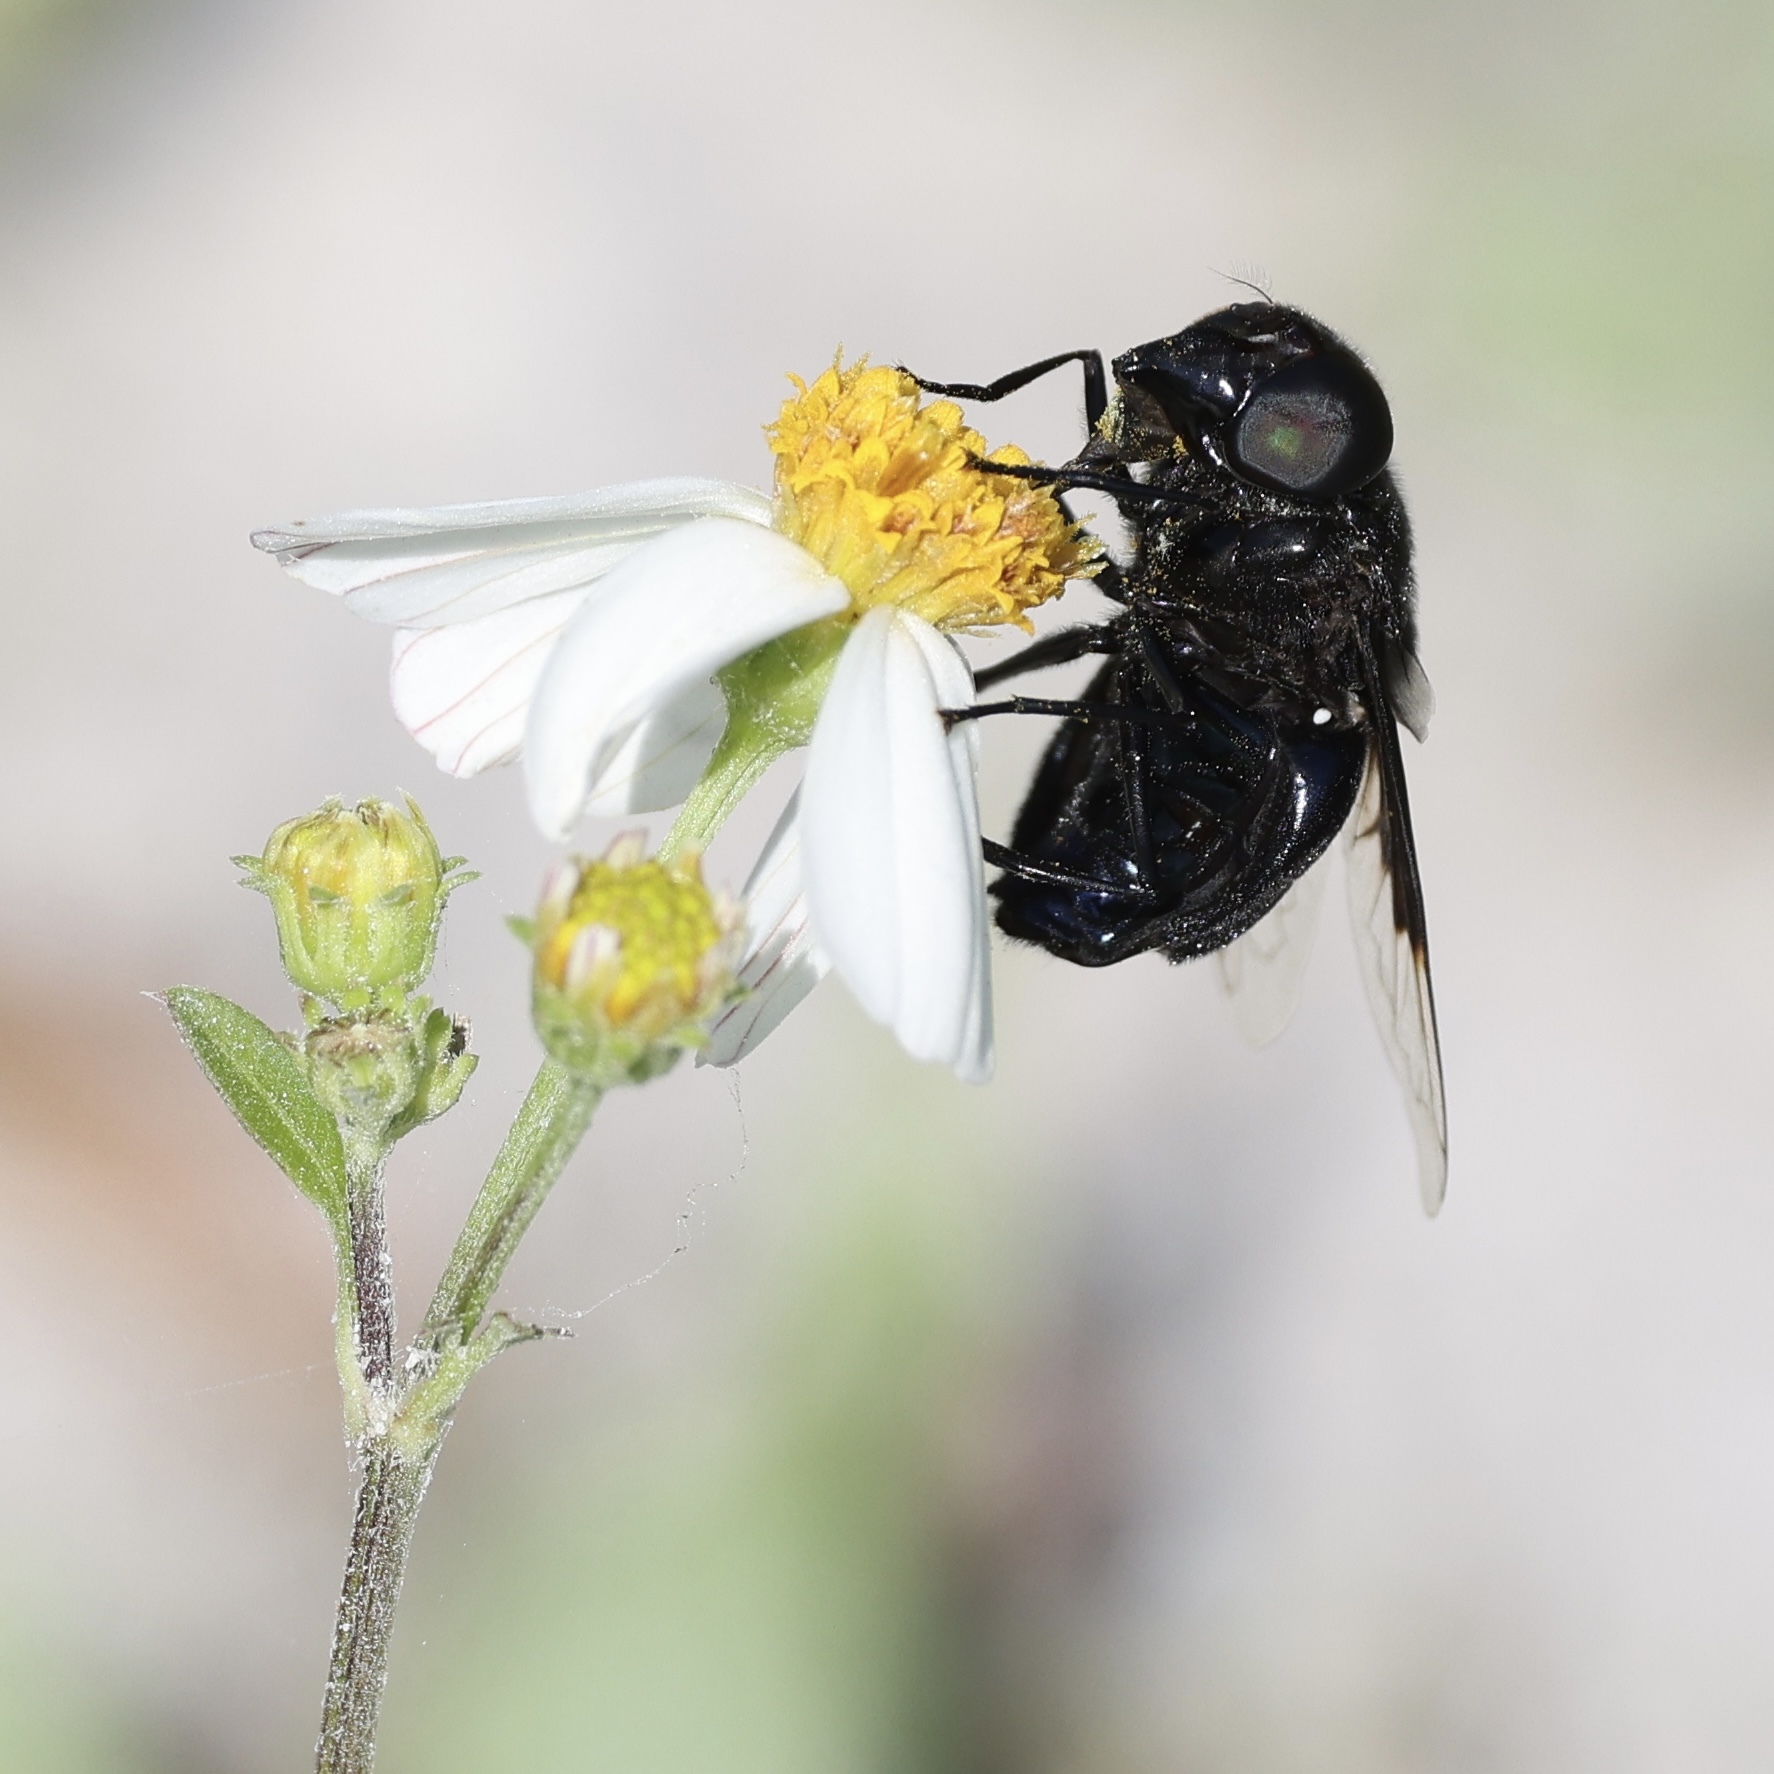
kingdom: Animalia
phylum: Arthropoda
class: Insecta
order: Diptera
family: Syrphidae
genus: Copestylum
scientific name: Copestylum mexicanum
